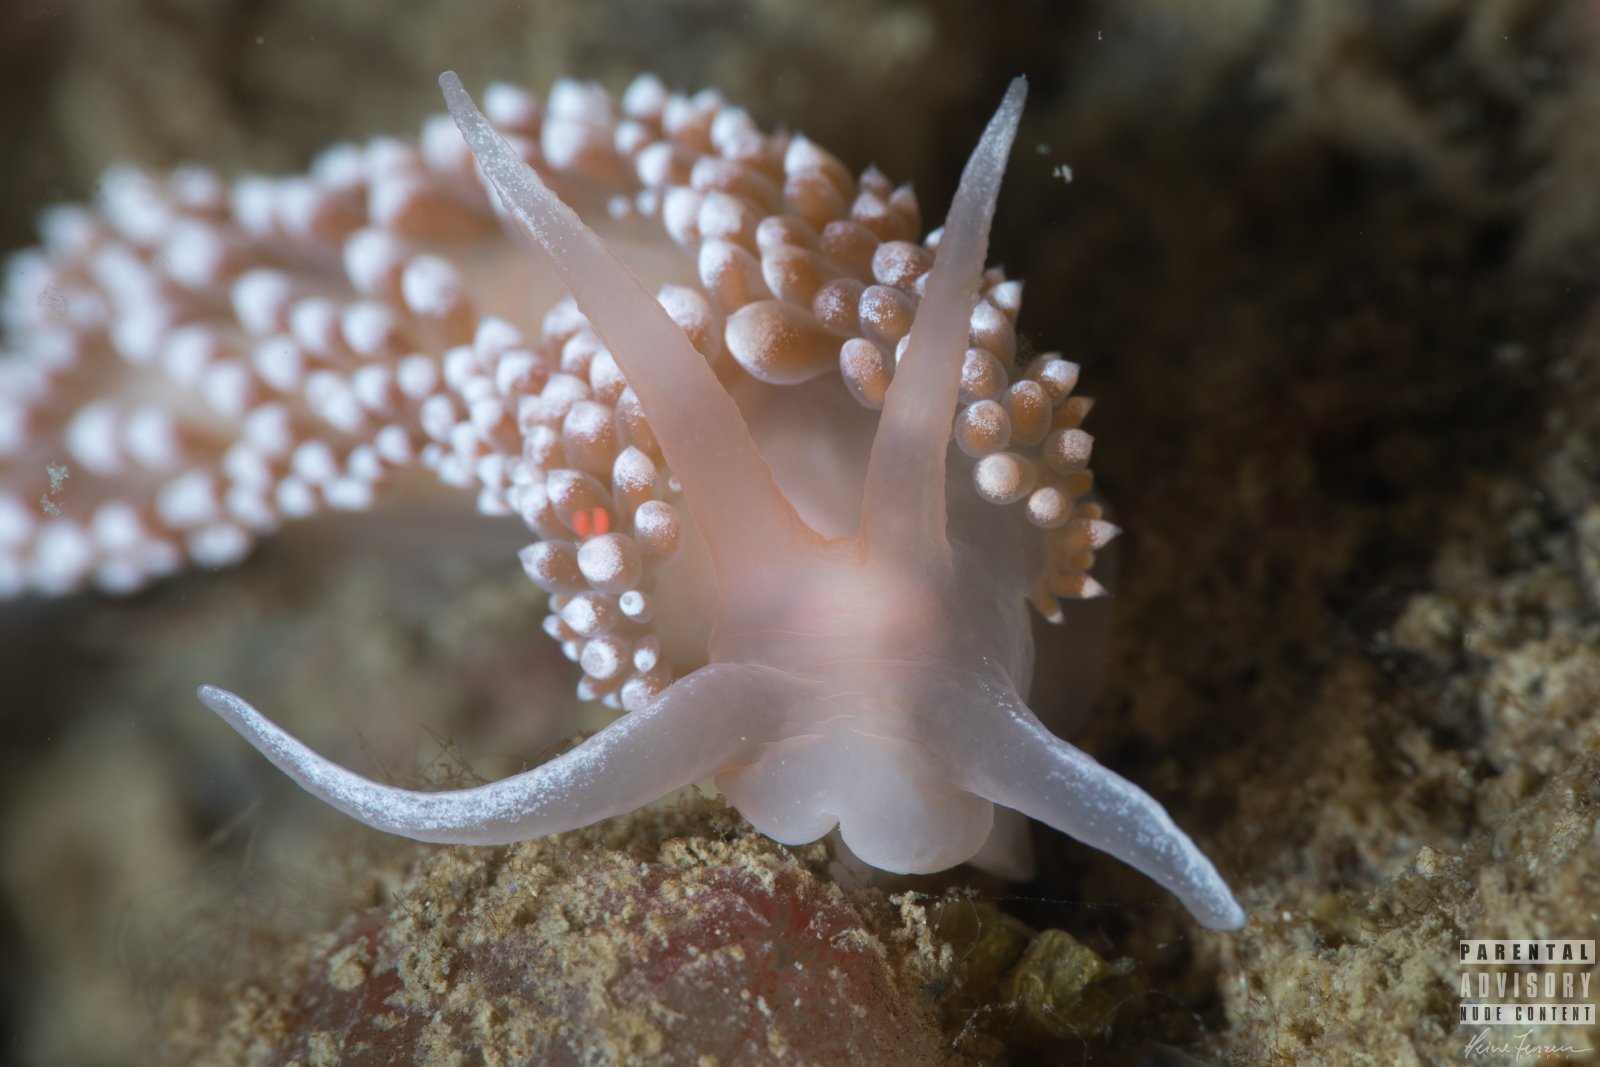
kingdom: Animalia
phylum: Mollusca
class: Gastropoda
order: Nudibranchia
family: Coryphellidae
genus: Coryphella
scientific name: Coryphella verrucosa
